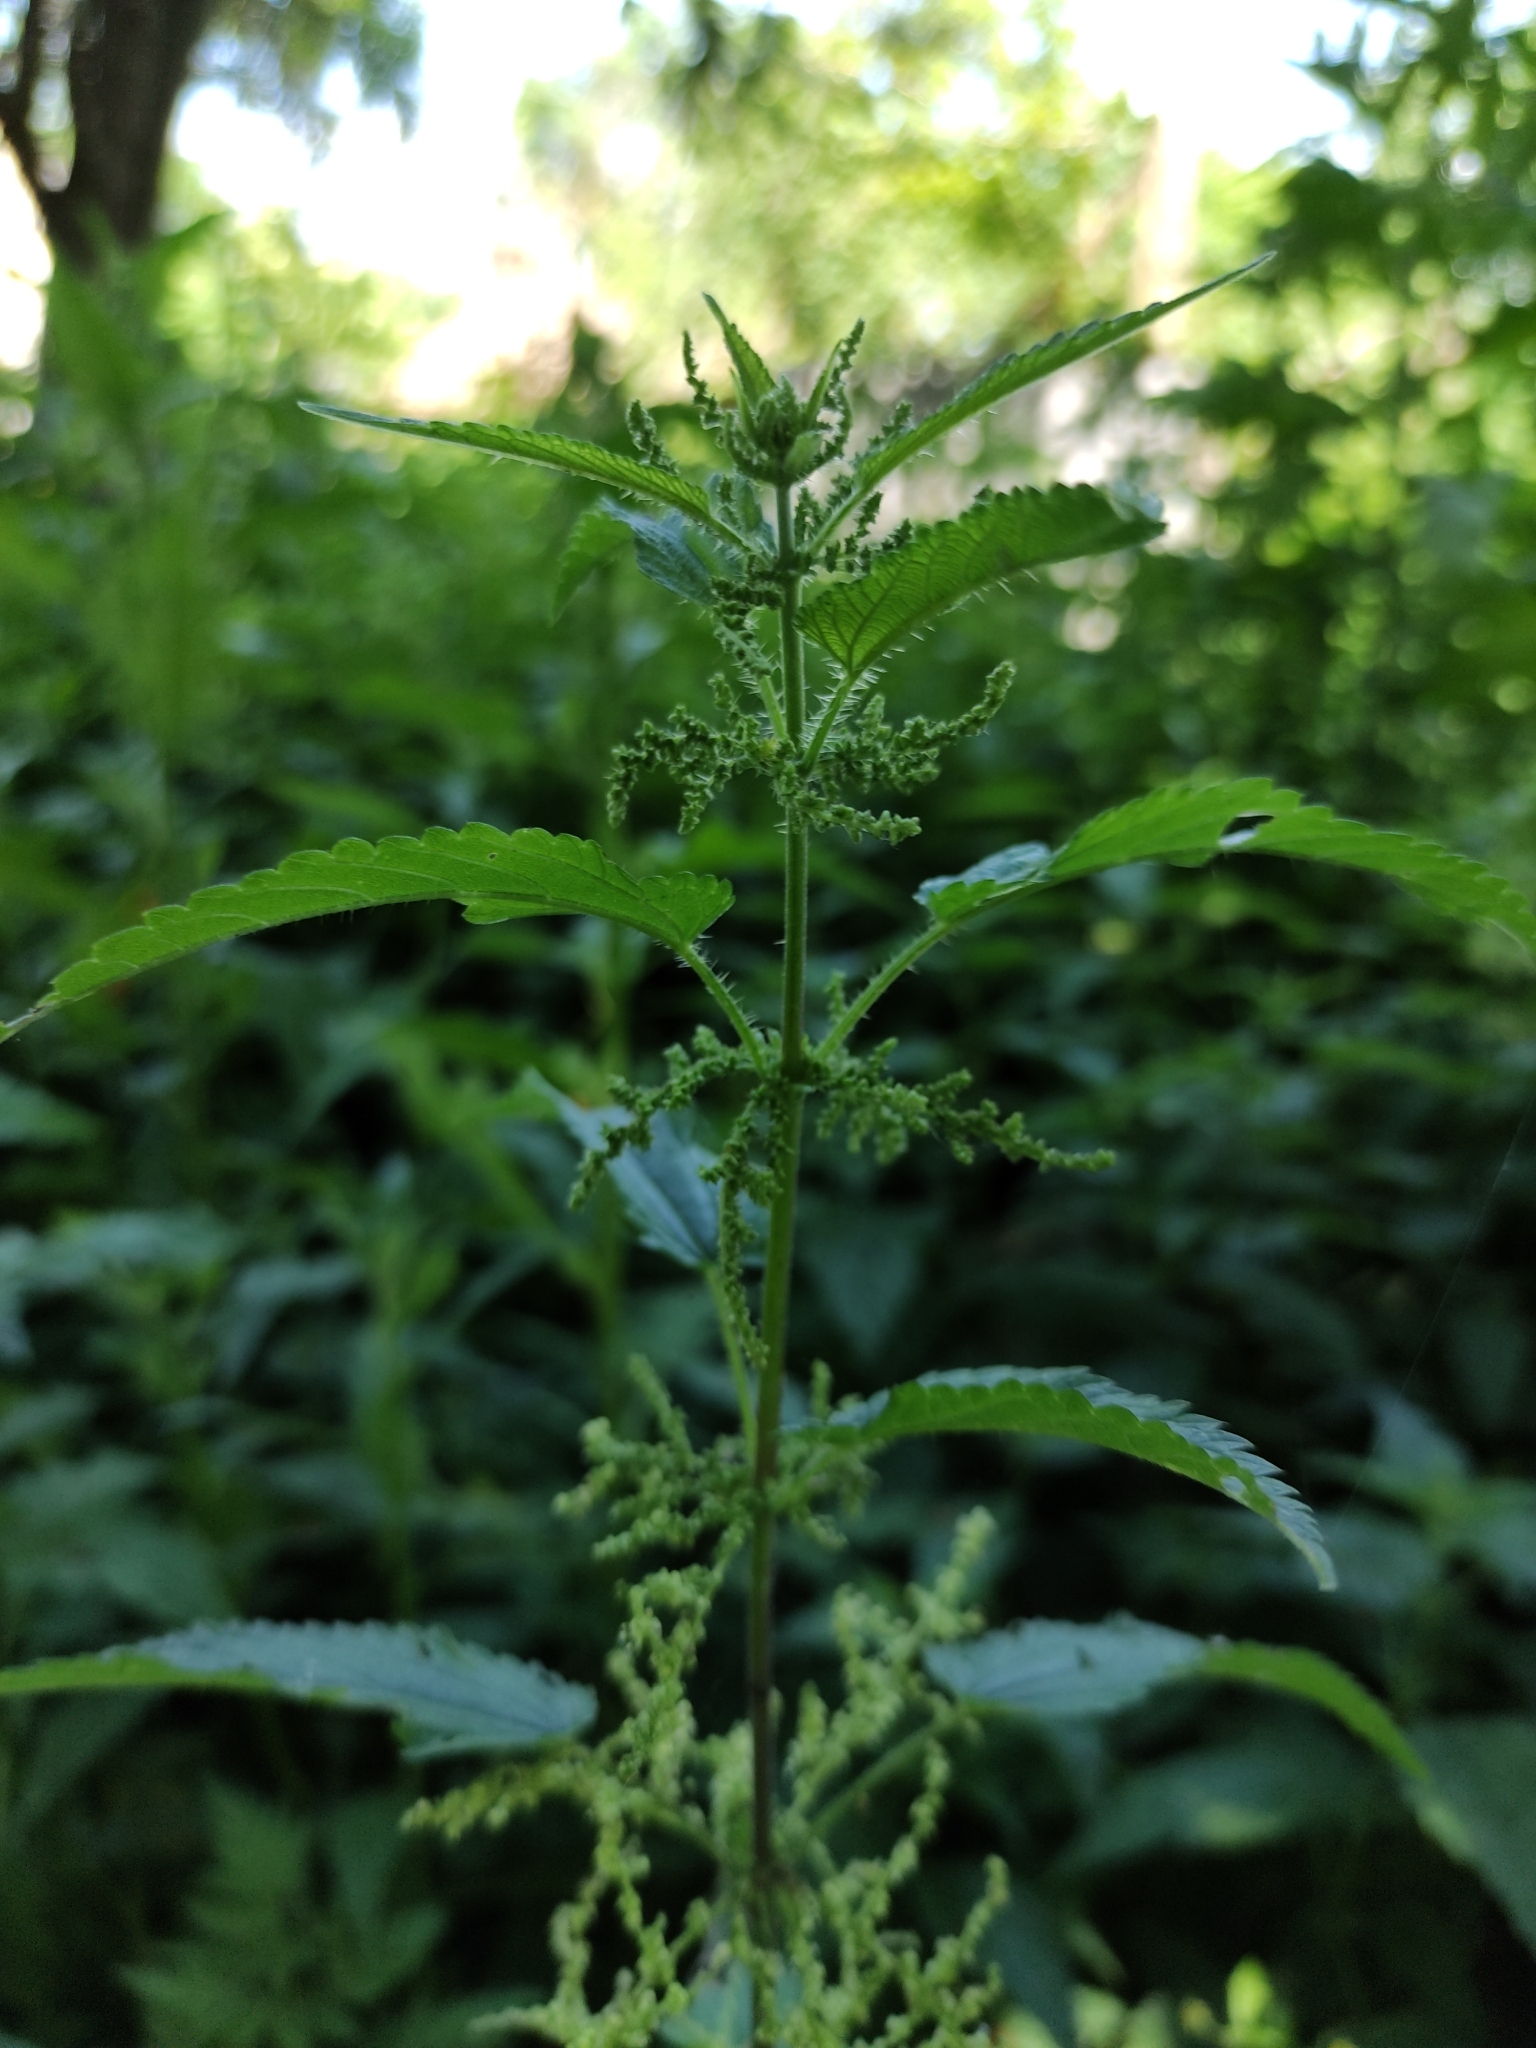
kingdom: Plantae
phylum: Tracheophyta
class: Magnoliopsida
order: Rosales
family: Urticaceae
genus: Urtica
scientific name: Urtica dioica
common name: Common nettle
